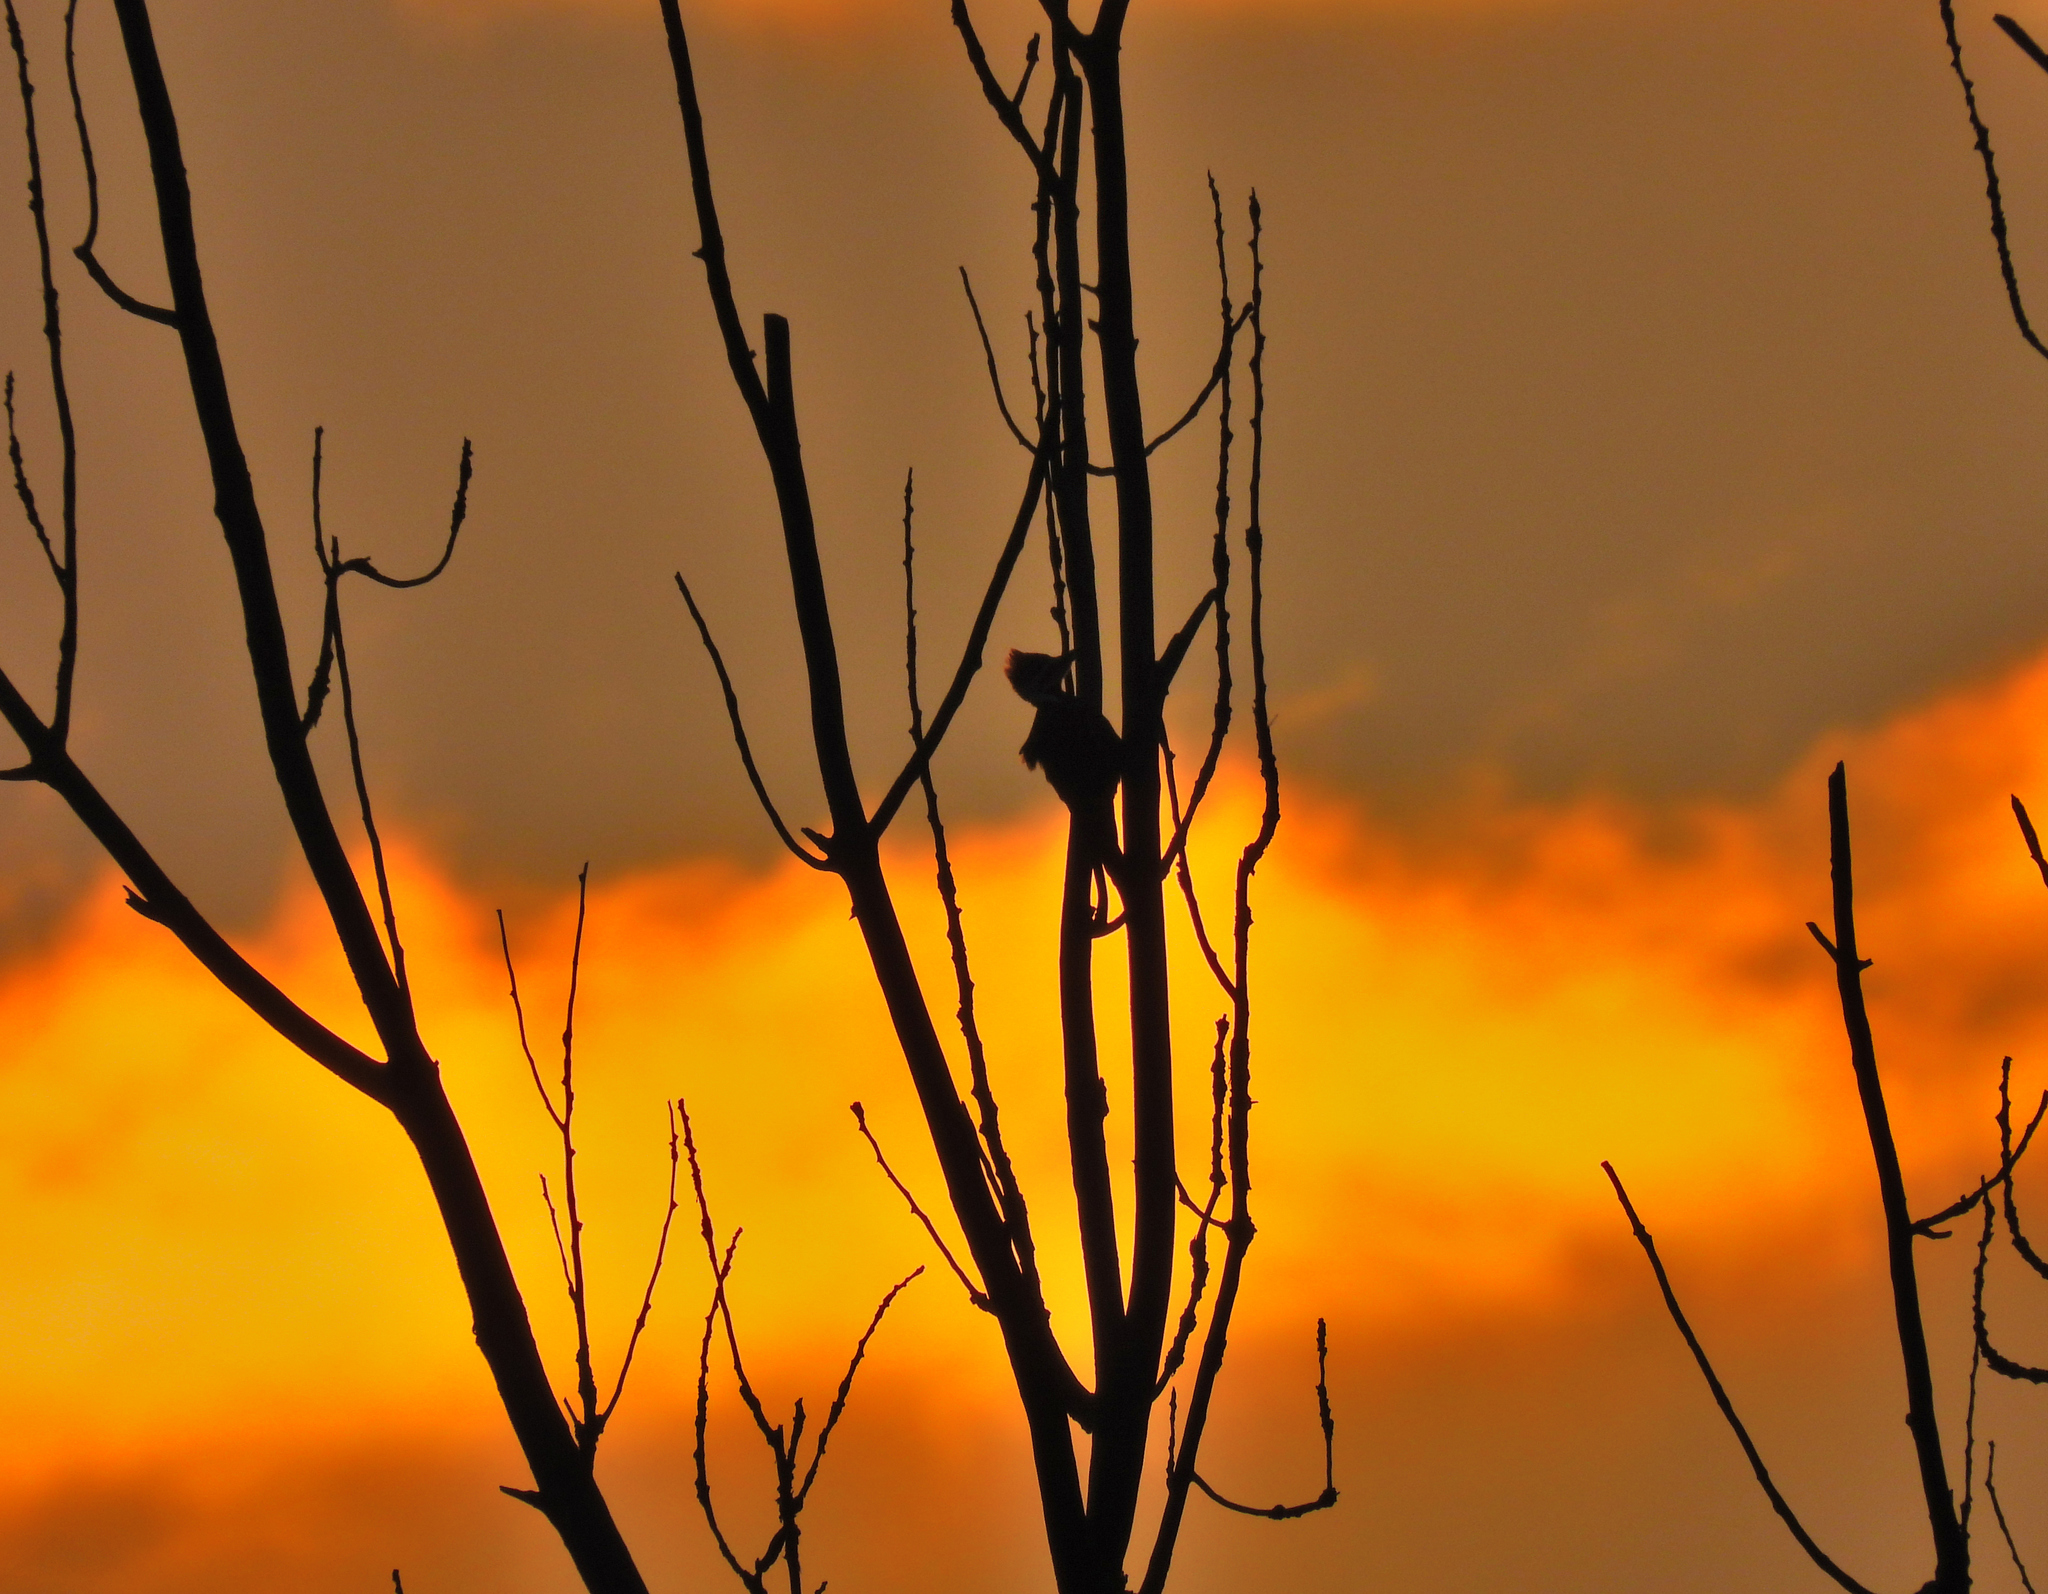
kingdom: Animalia
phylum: Chordata
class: Aves
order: Piciformes
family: Picidae
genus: Dryocopus
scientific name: Dryocopus pileatus
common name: Pileated woodpecker
